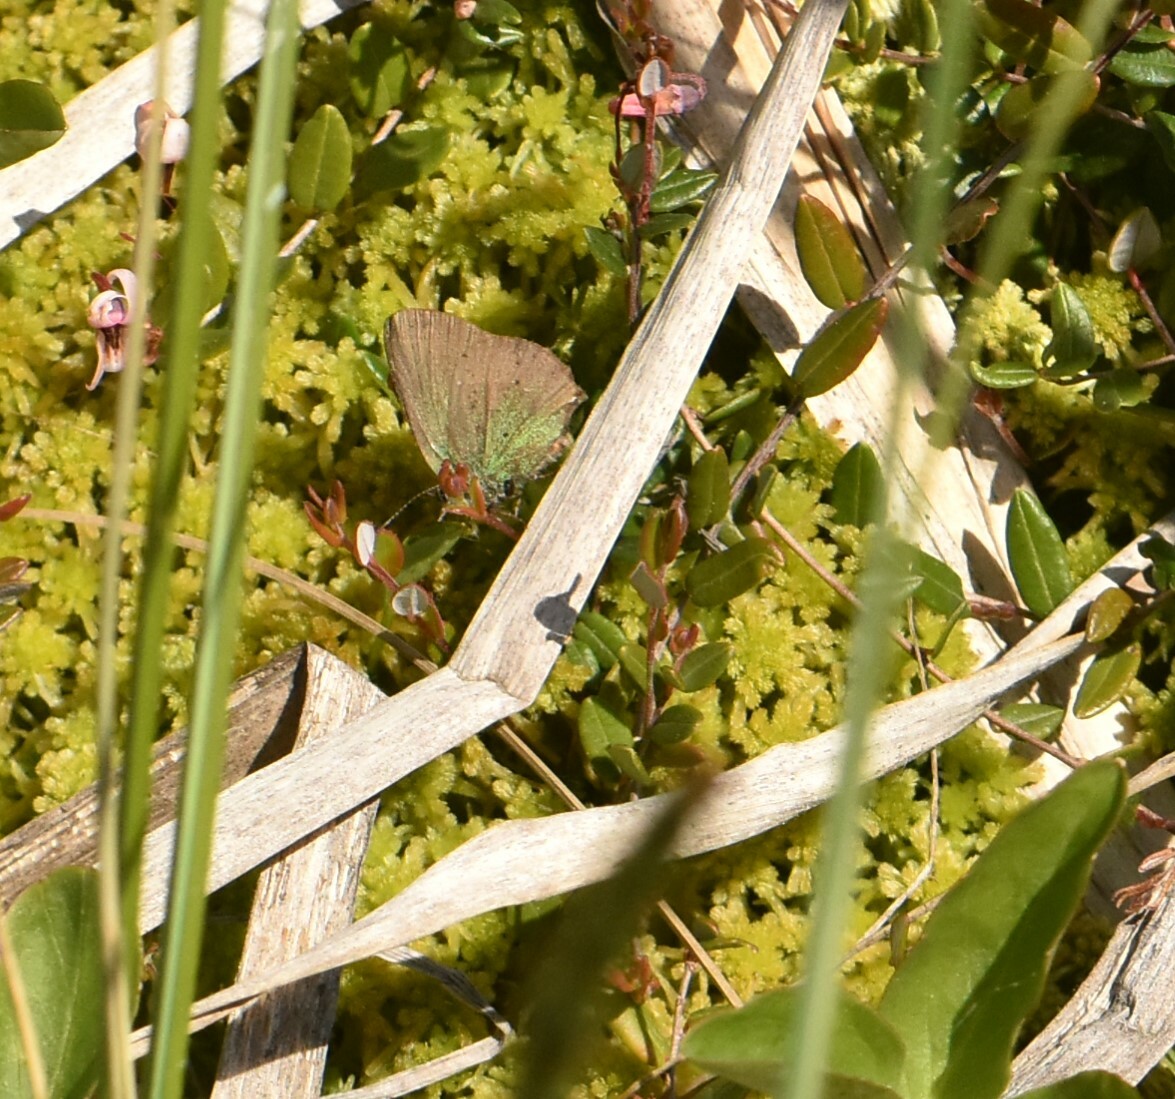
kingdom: Animalia
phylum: Arthropoda
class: Insecta
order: Lepidoptera
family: Lycaenidae
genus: Callophrys
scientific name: Callophrys rubi
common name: Green hairstreak
